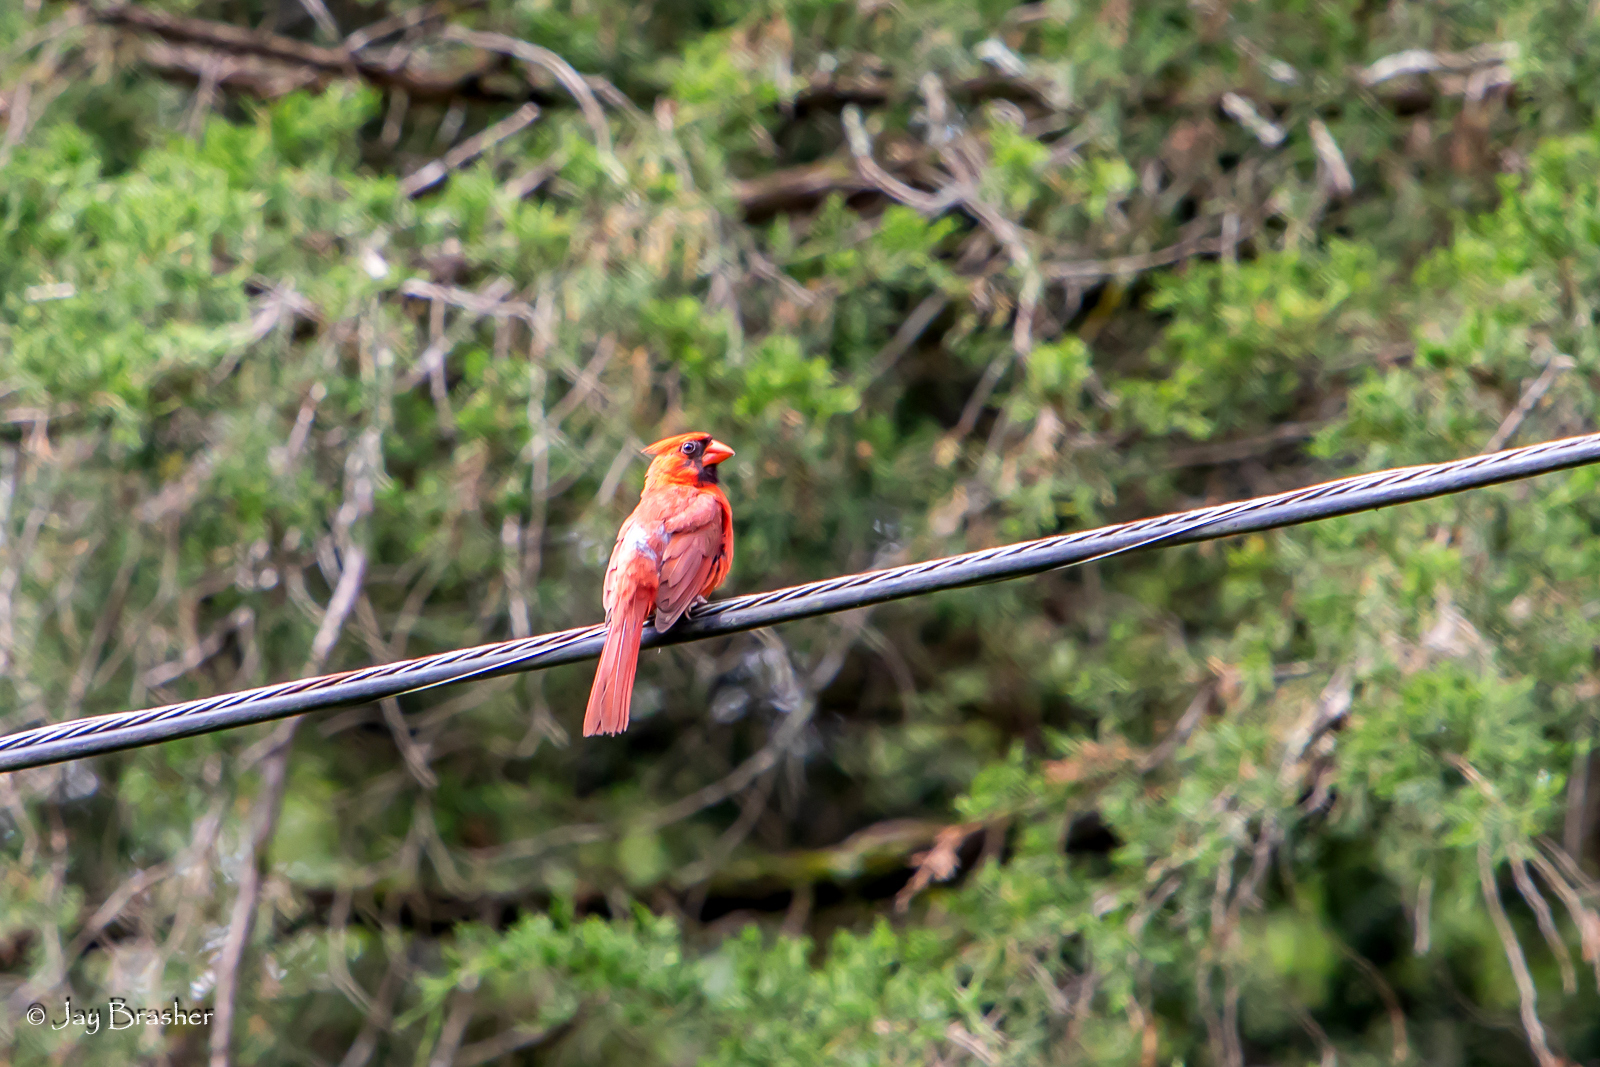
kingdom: Animalia
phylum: Chordata
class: Aves
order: Passeriformes
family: Cardinalidae
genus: Cardinalis
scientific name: Cardinalis cardinalis
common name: Northern cardinal
